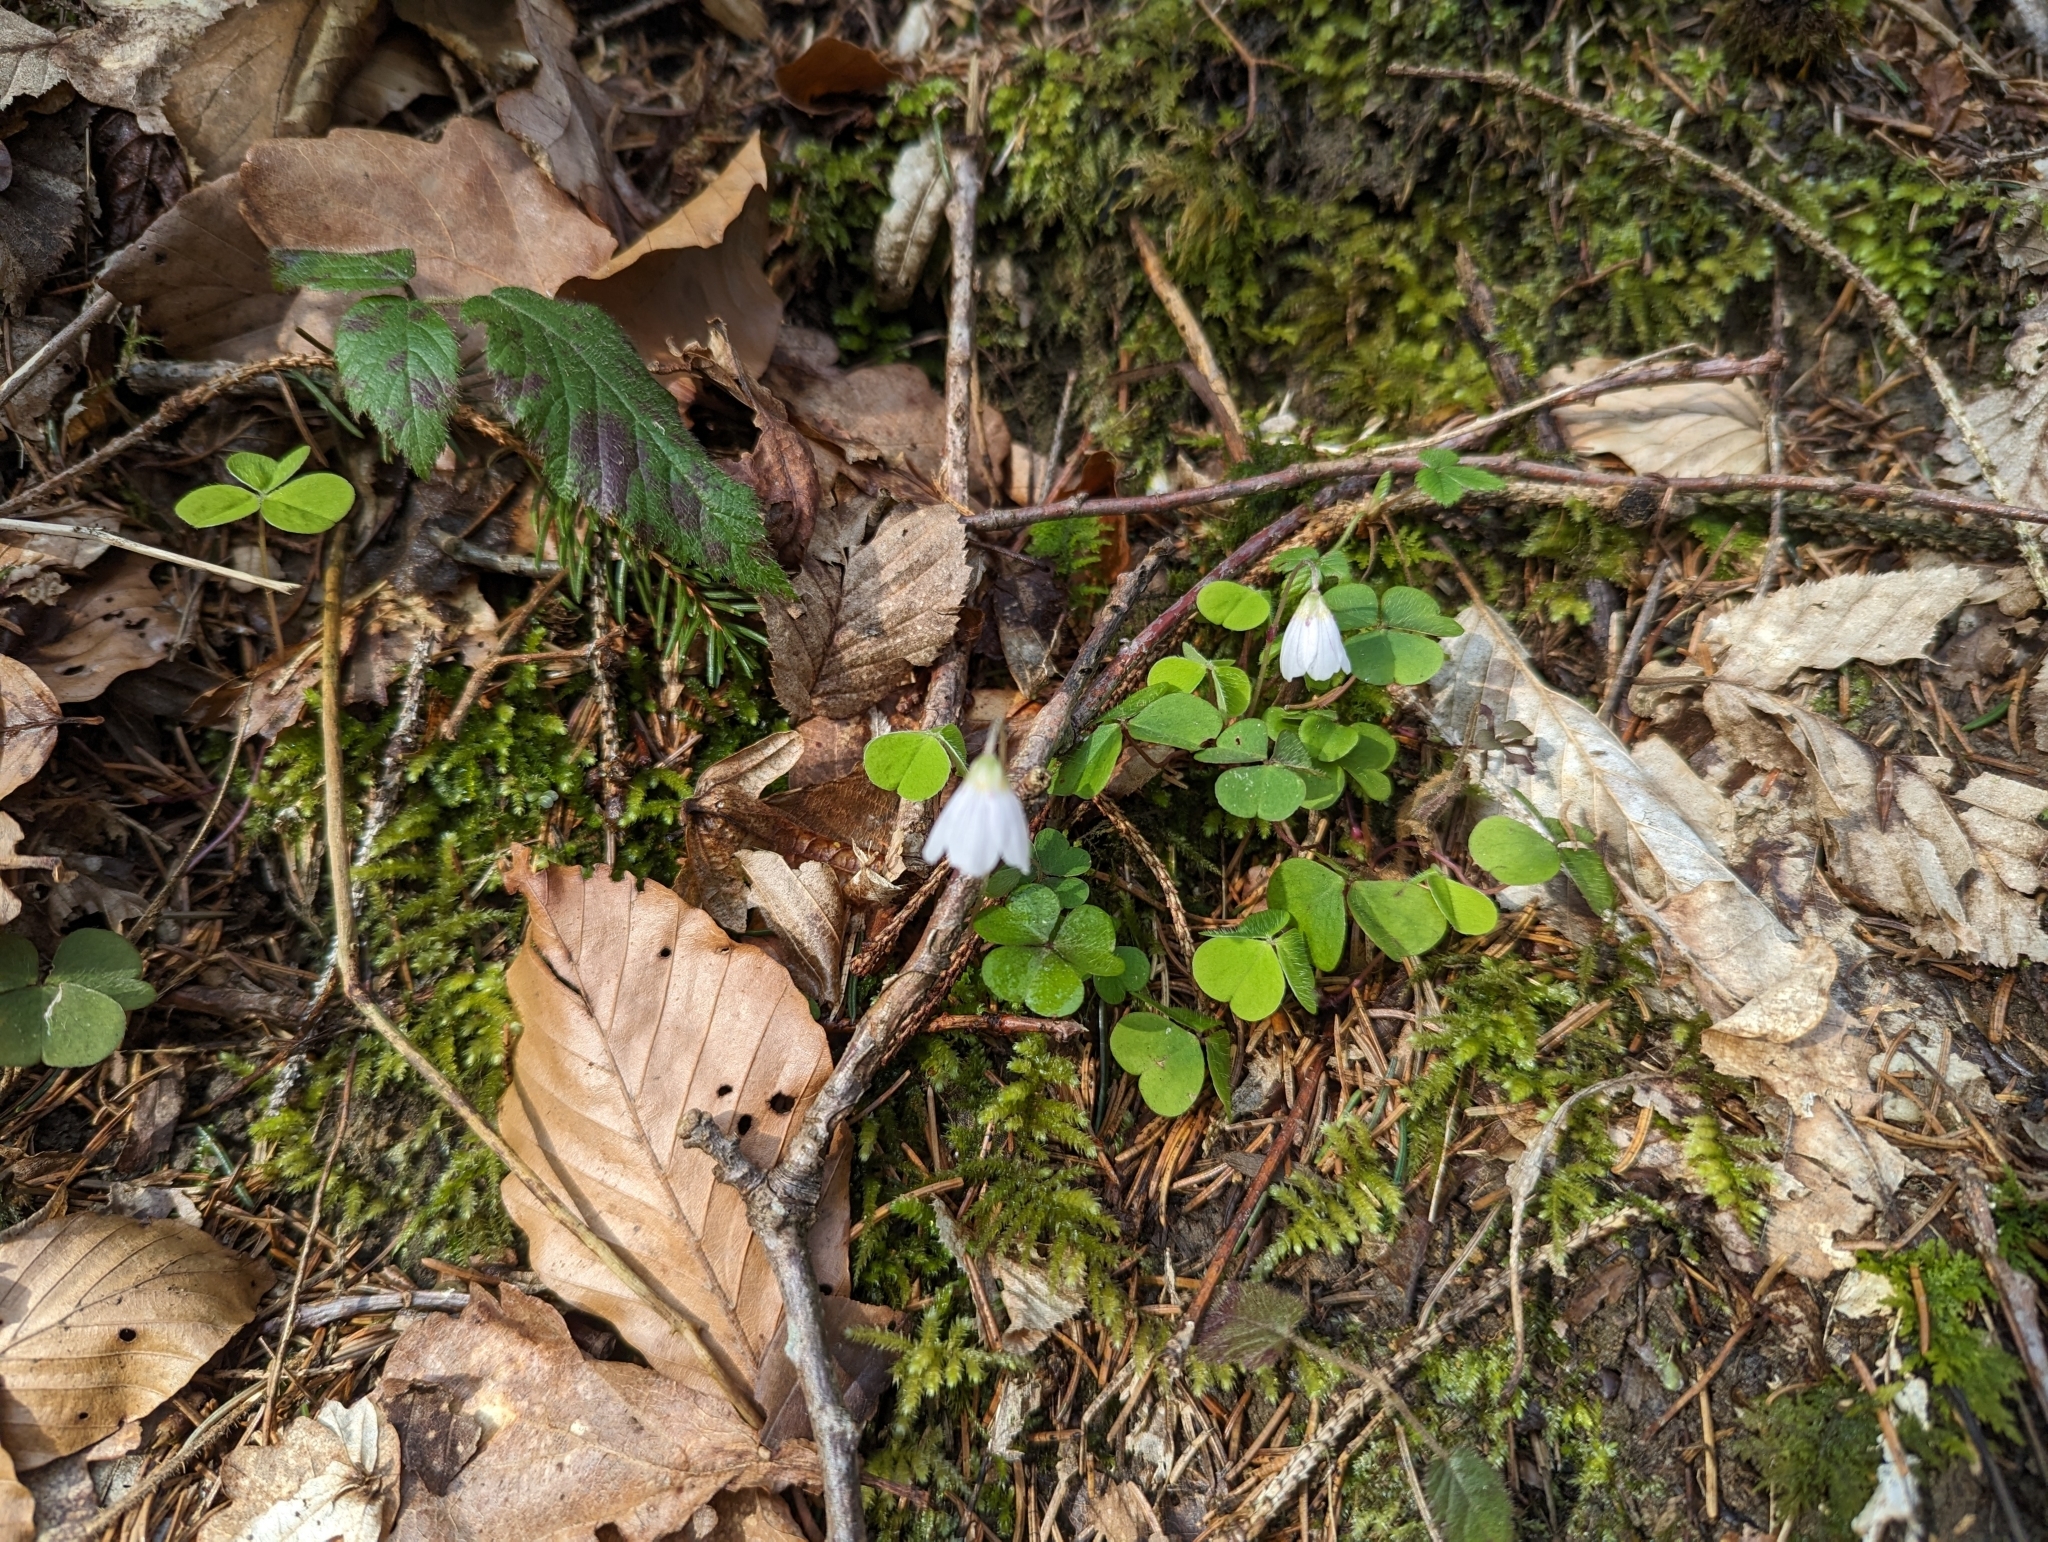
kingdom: Plantae
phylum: Tracheophyta
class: Magnoliopsida
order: Oxalidales
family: Oxalidaceae
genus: Oxalis
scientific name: Oxalis acetosella
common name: Wood-sorrel
